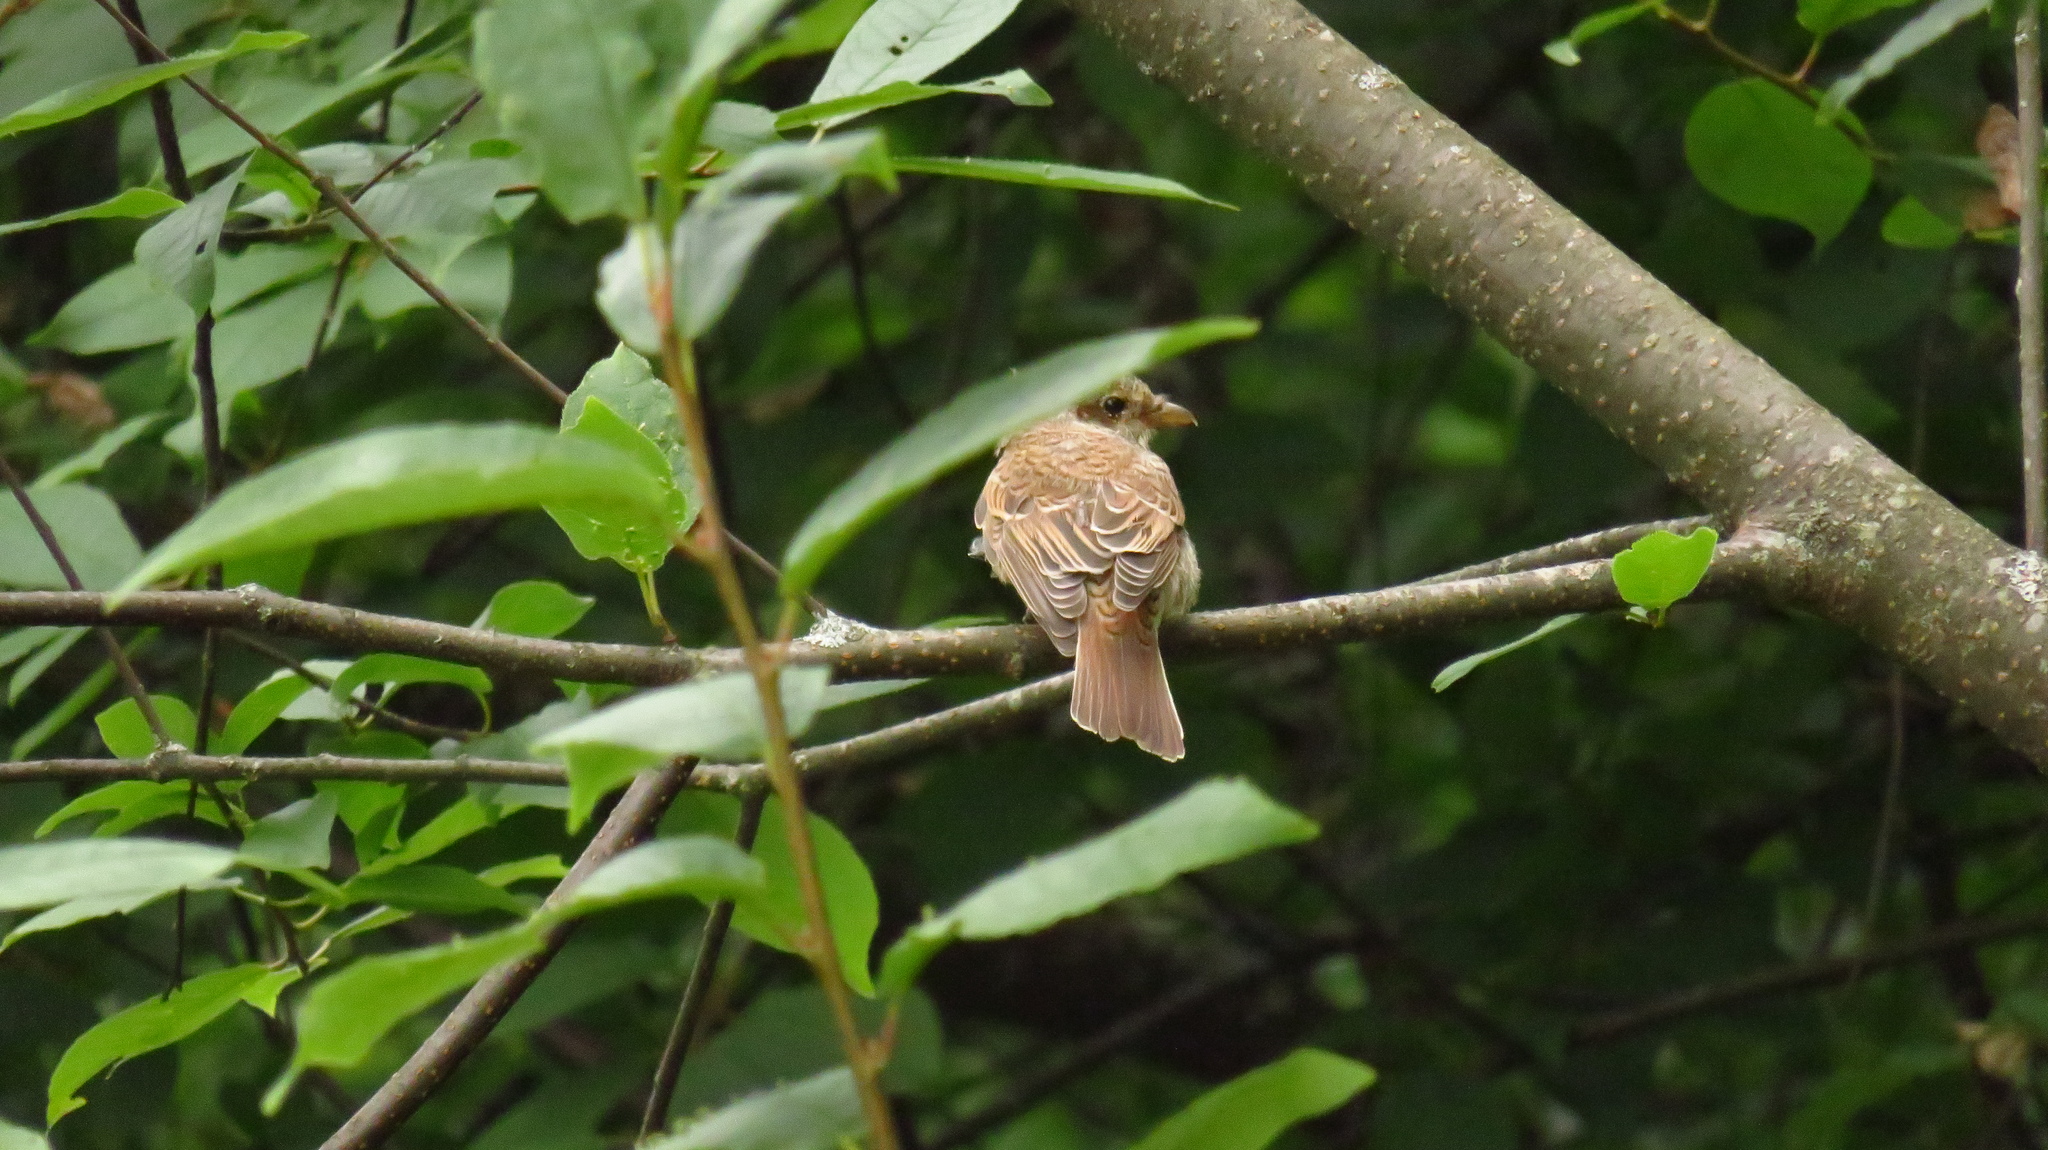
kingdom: Animalia
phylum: Chordata
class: Aves
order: Passeriformes
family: Laniidae
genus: Lanius
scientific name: Lanius collurio
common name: Red-backed shrike
